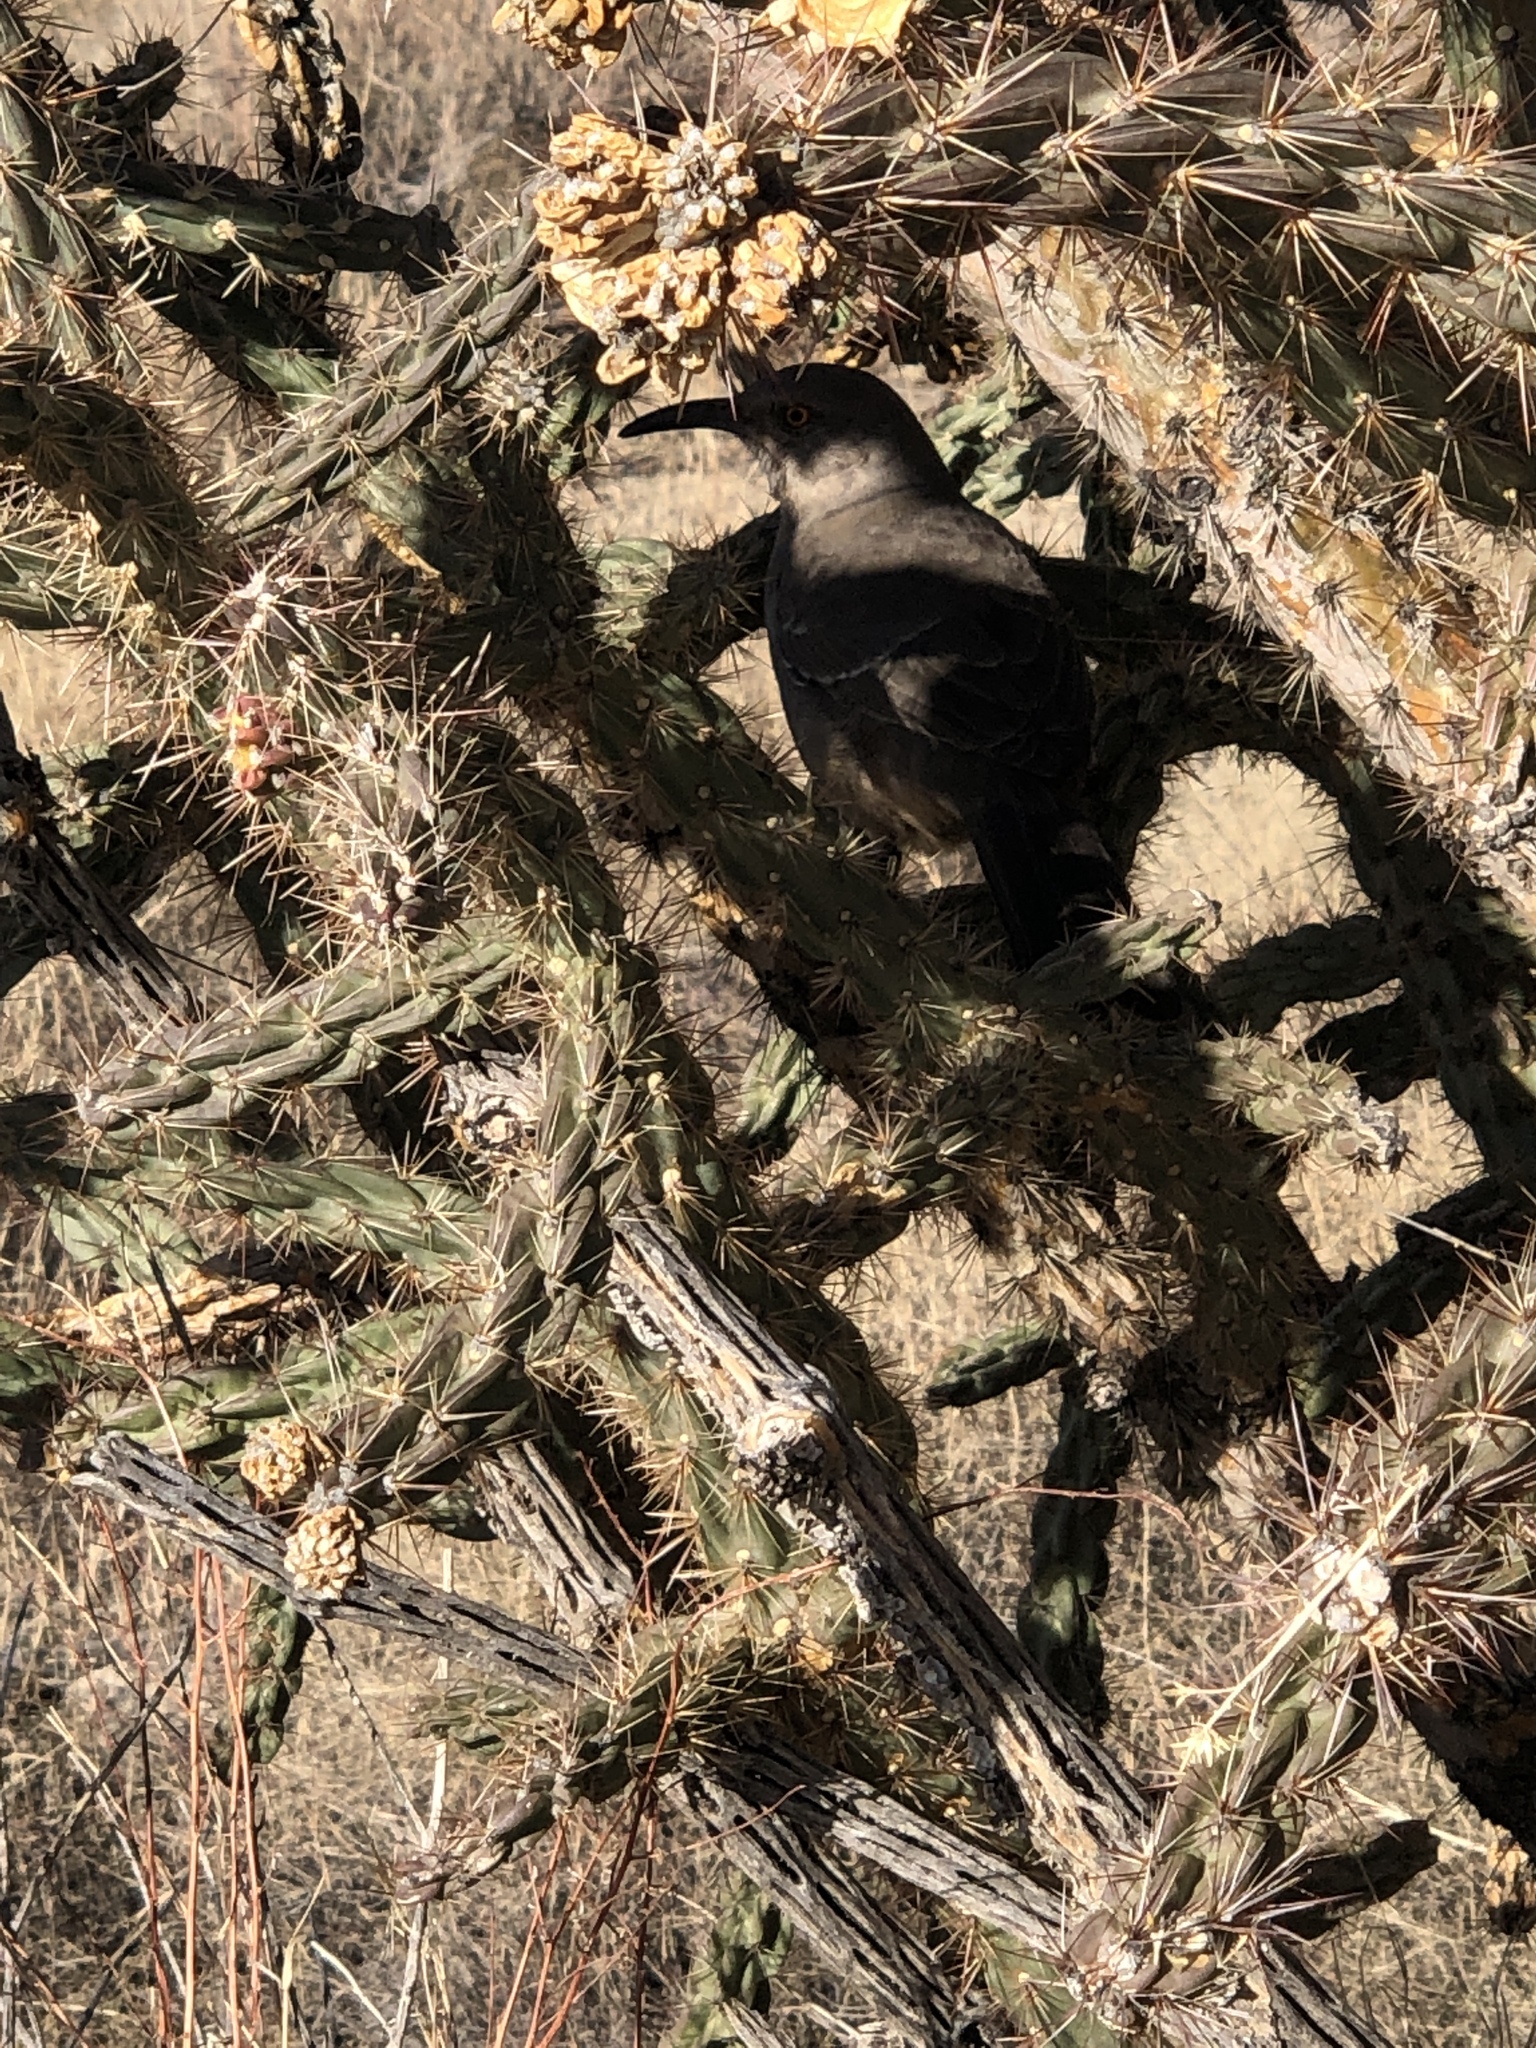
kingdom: Animalia
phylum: Chordata
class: Aves
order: Passeriformes
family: Mimidae
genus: Toxostoma
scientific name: Toxostoma curvirostre
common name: Curve-billed thrasher
